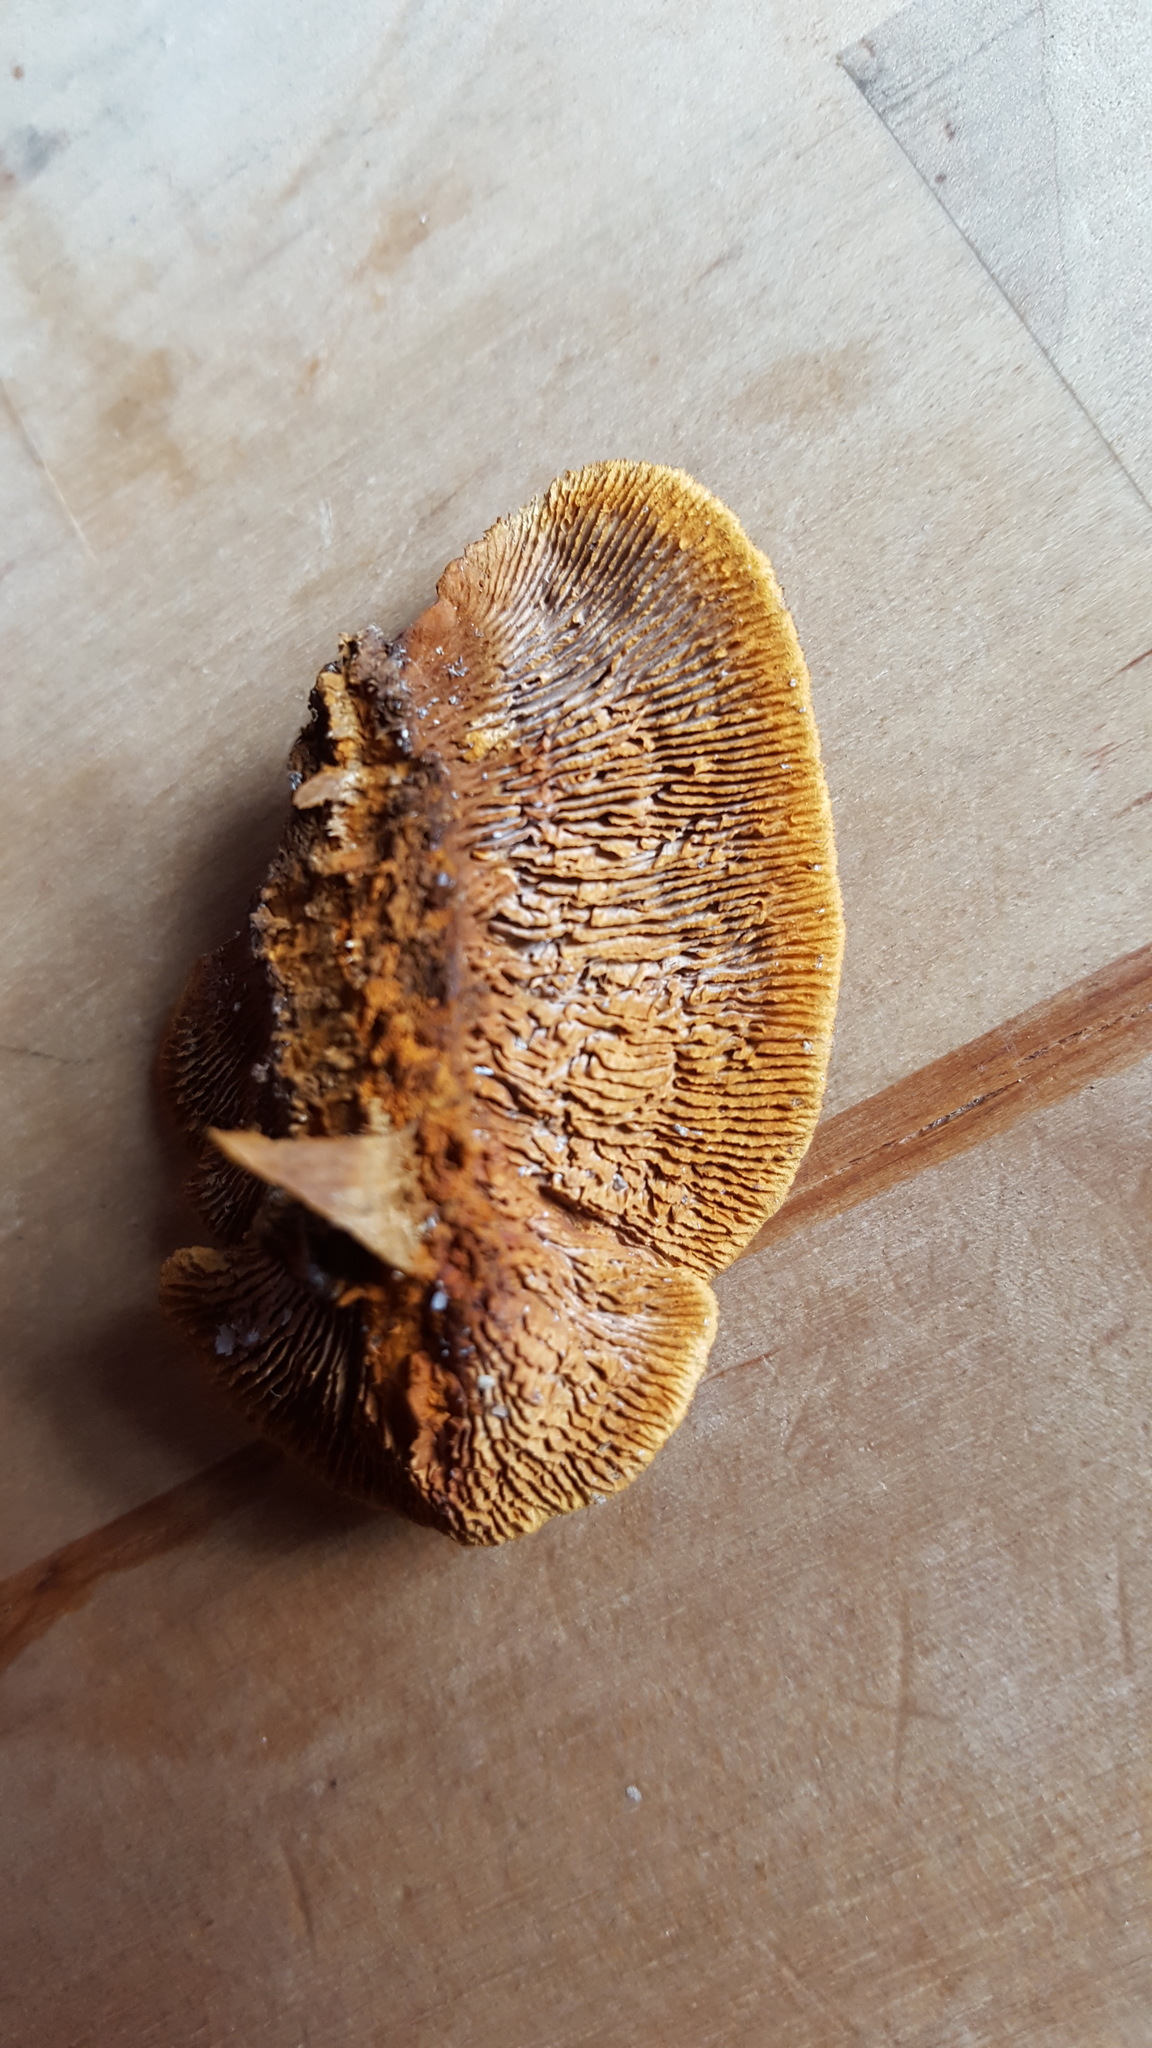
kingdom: Fungi
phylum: Basidiomycota
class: Agaricomycetes
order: Gloeophyllales
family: Gloeophyllaceae
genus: Gloeophyllum
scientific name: Gloeophyllum sepiarium
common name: Conifer mazegill
